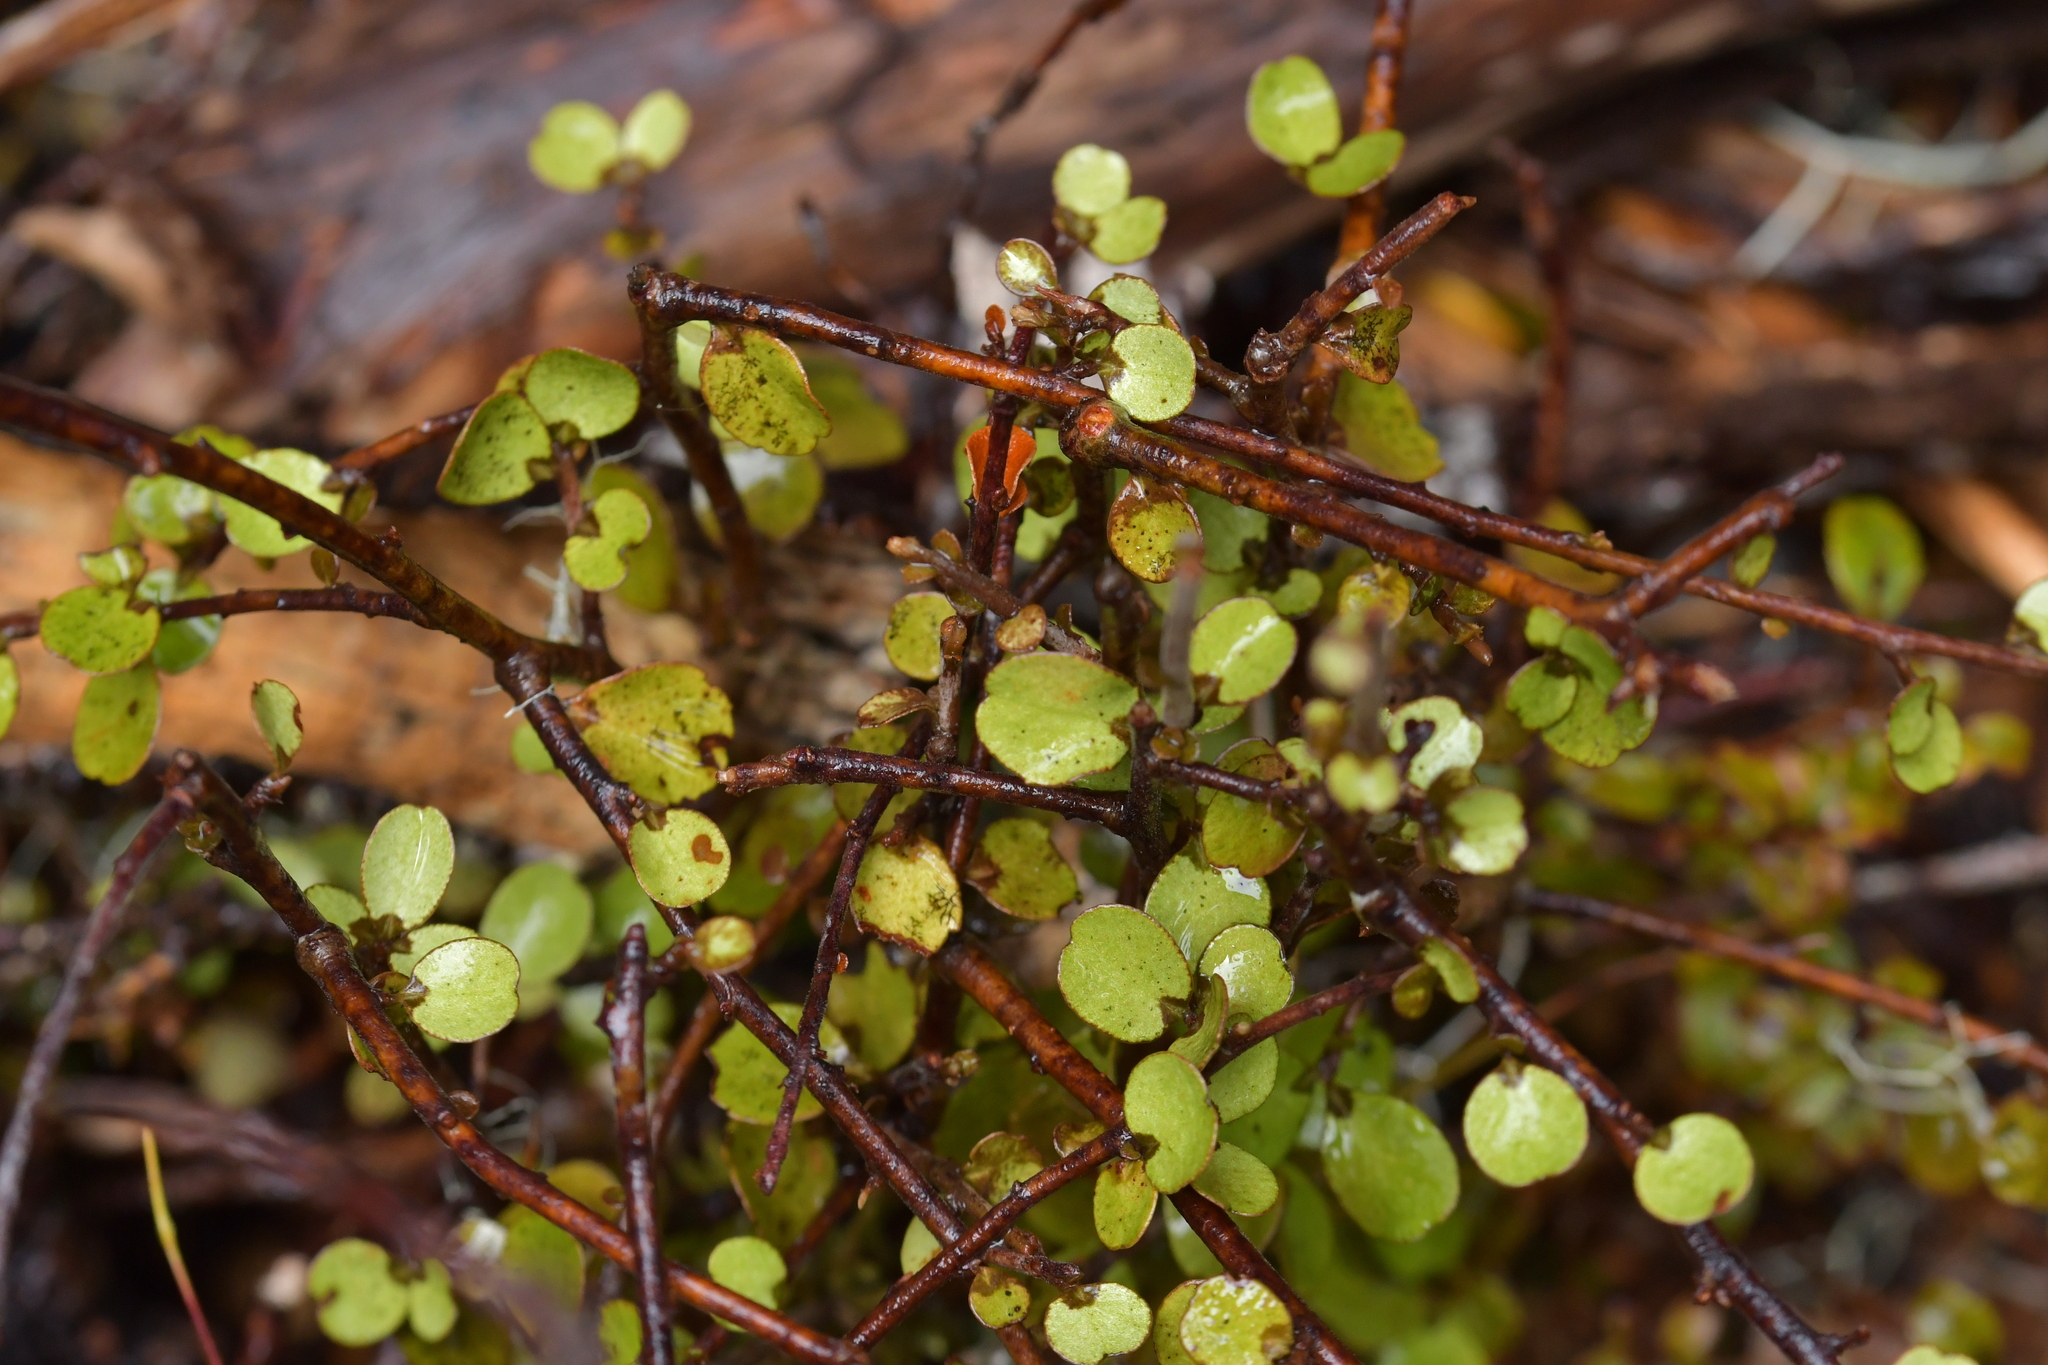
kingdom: Plantae
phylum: Tracheophyta
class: Magnoliopsida
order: Ericales
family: Primulaceae
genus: Myrsine
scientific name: Myrsine divaricata
